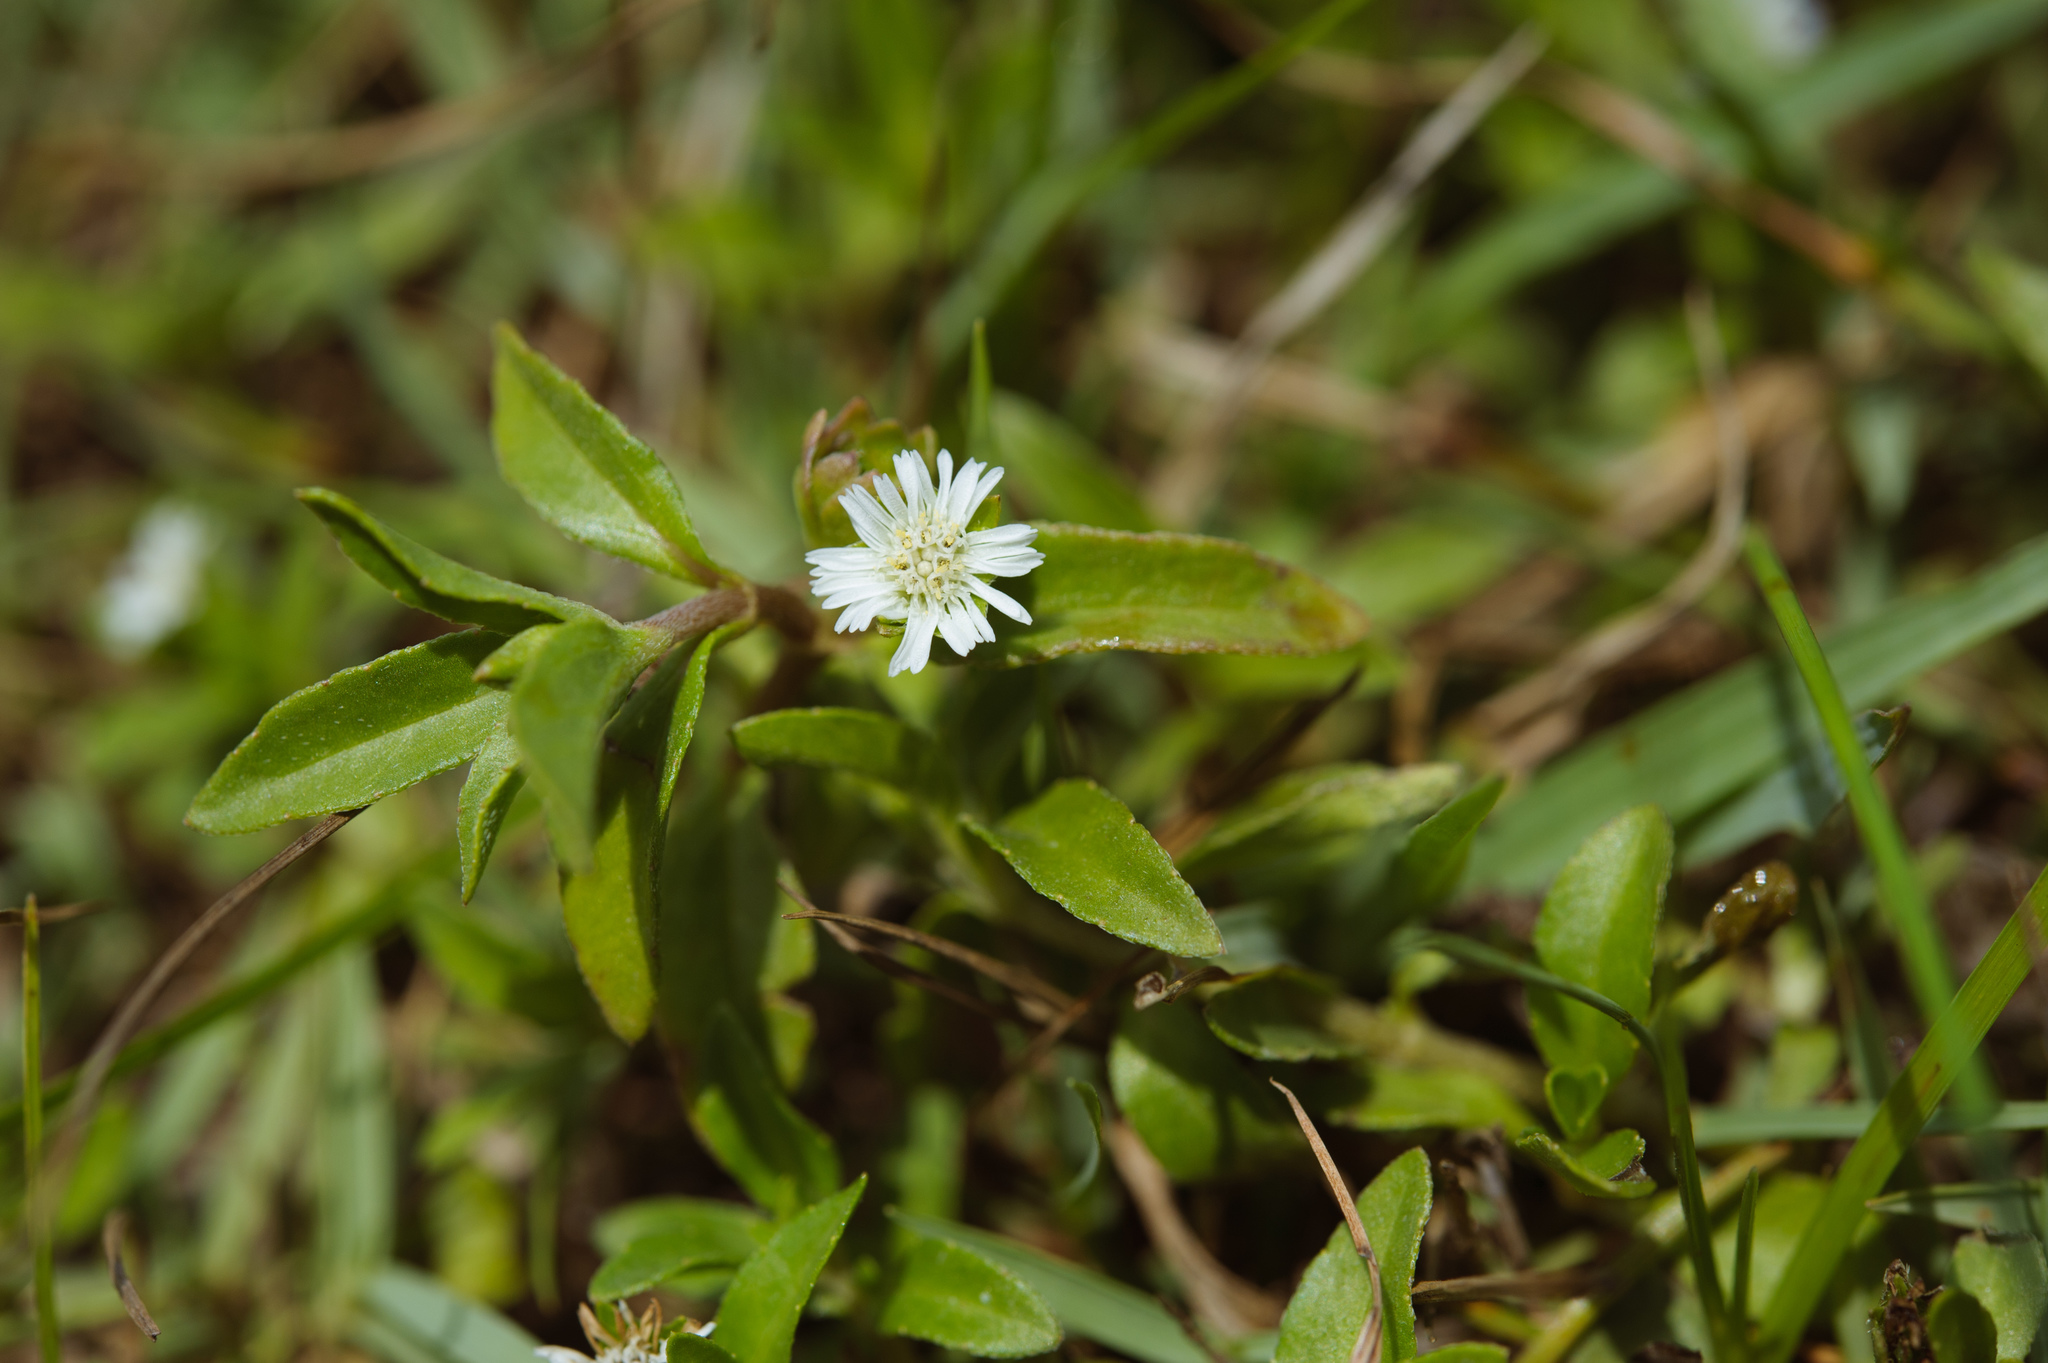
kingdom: Plantae
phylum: Tracheophyta
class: Magnoliopsida
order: Asterales
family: Asteraceae
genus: Eclipta
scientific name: Eclipta prostrata
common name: False daisy
